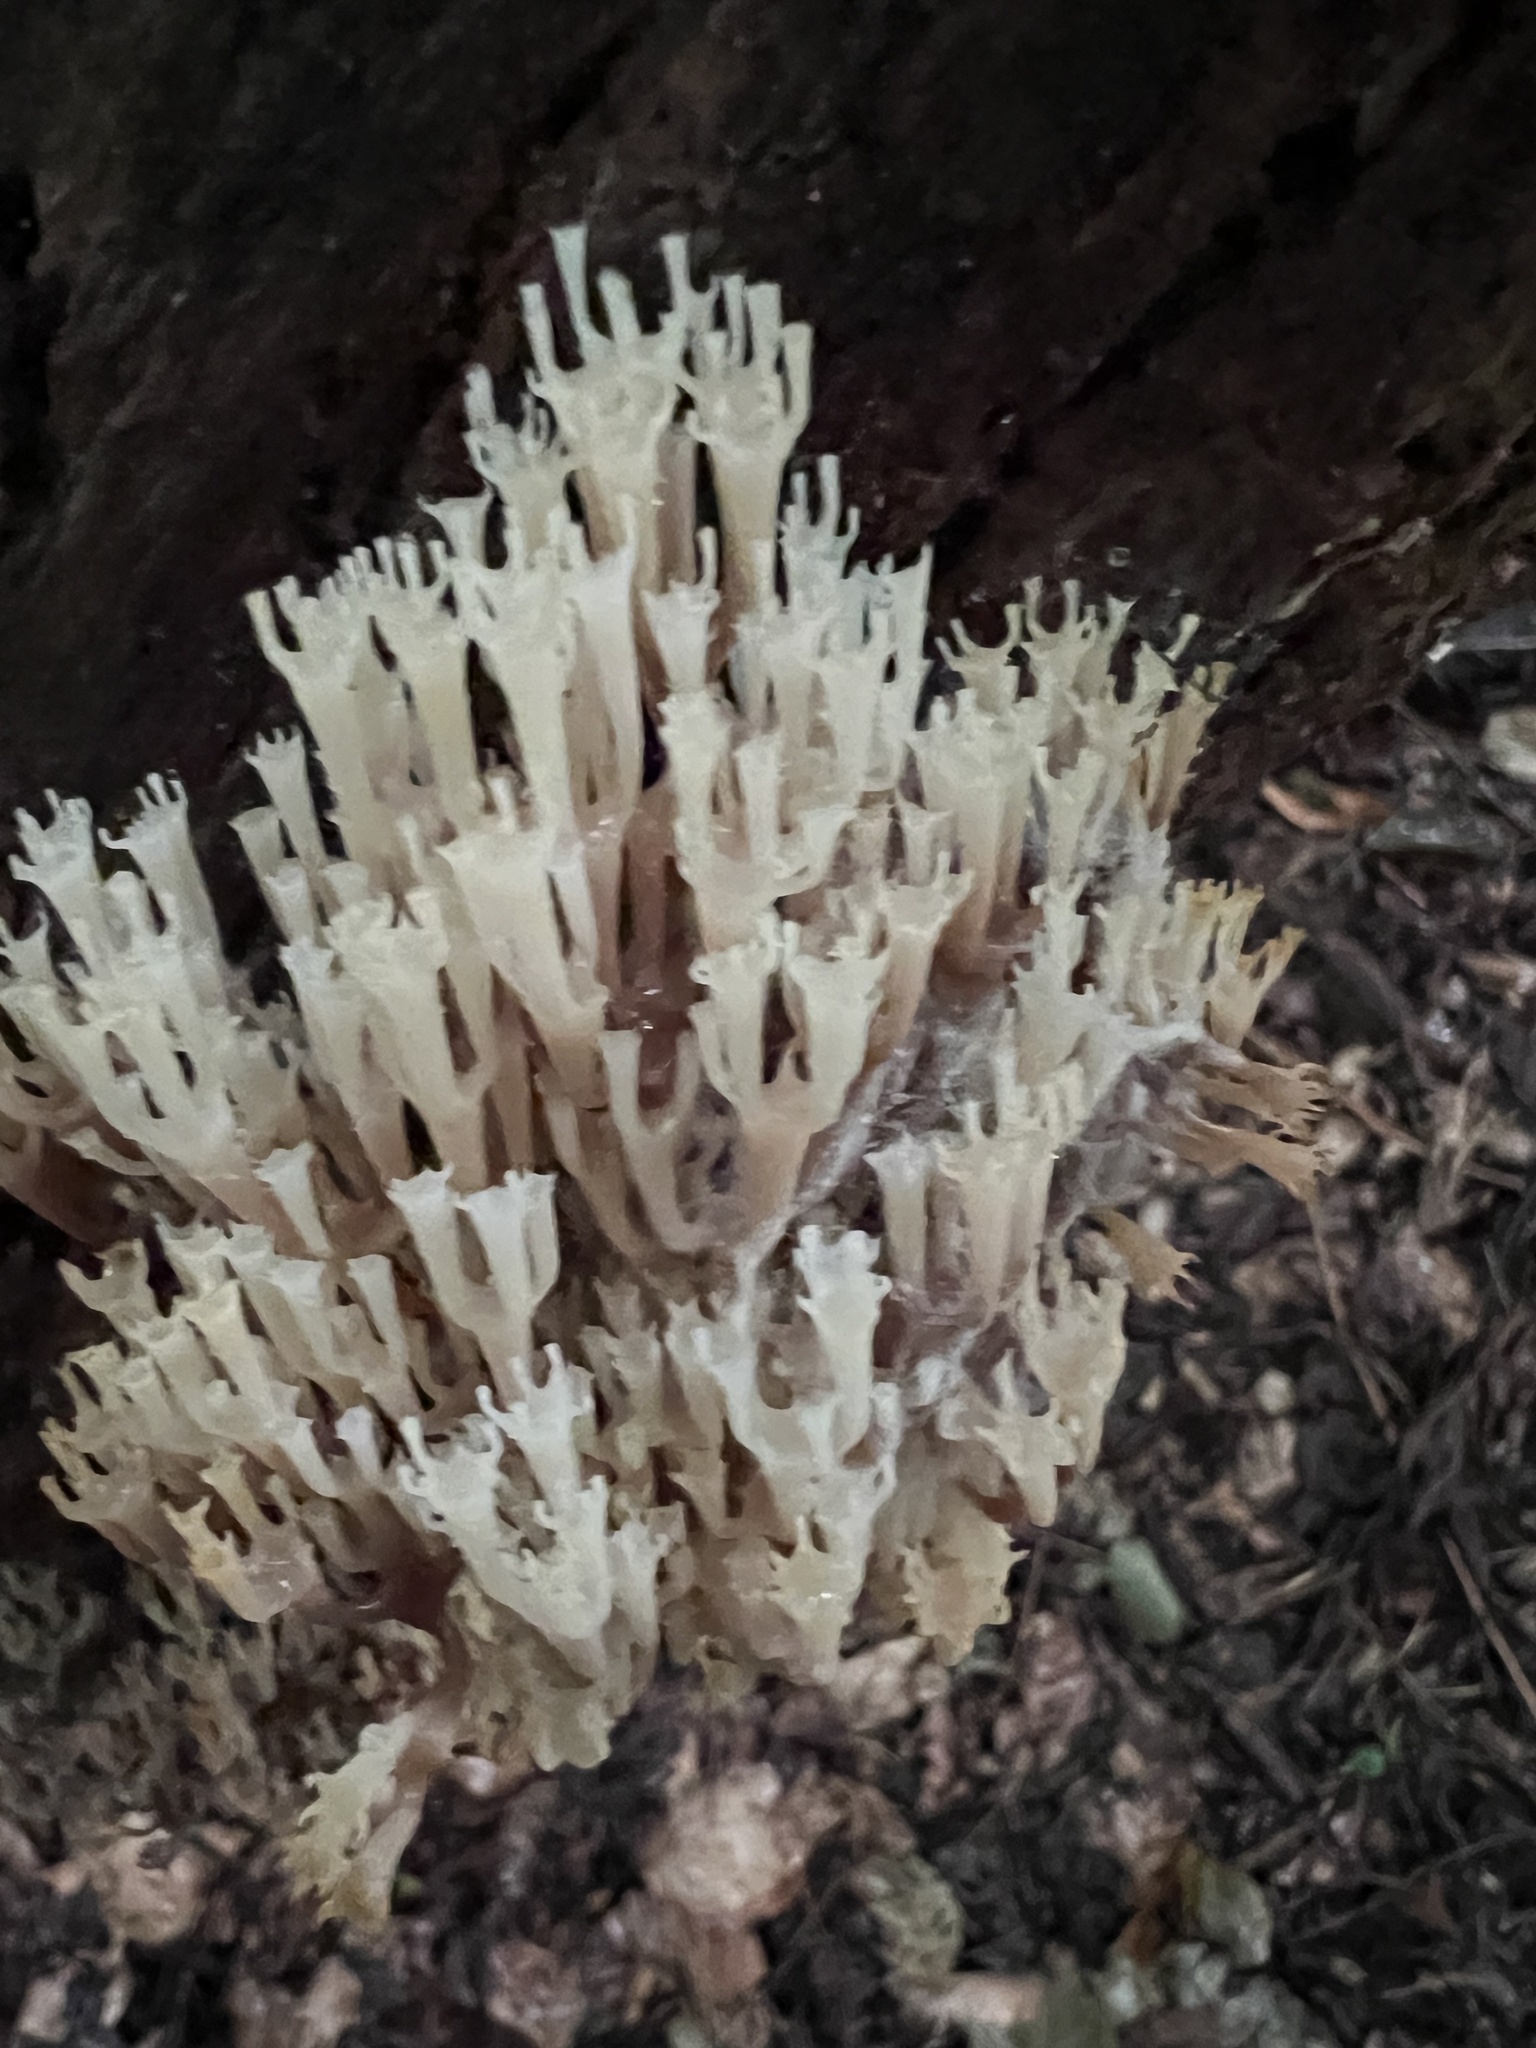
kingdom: Fungi
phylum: Basidiomycota
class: Agaricomycetes
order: Russulales
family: Auriscalpiaceae
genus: Artomyces
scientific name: Artomyces pyxidatus
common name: Crown-tipped coral fungus
